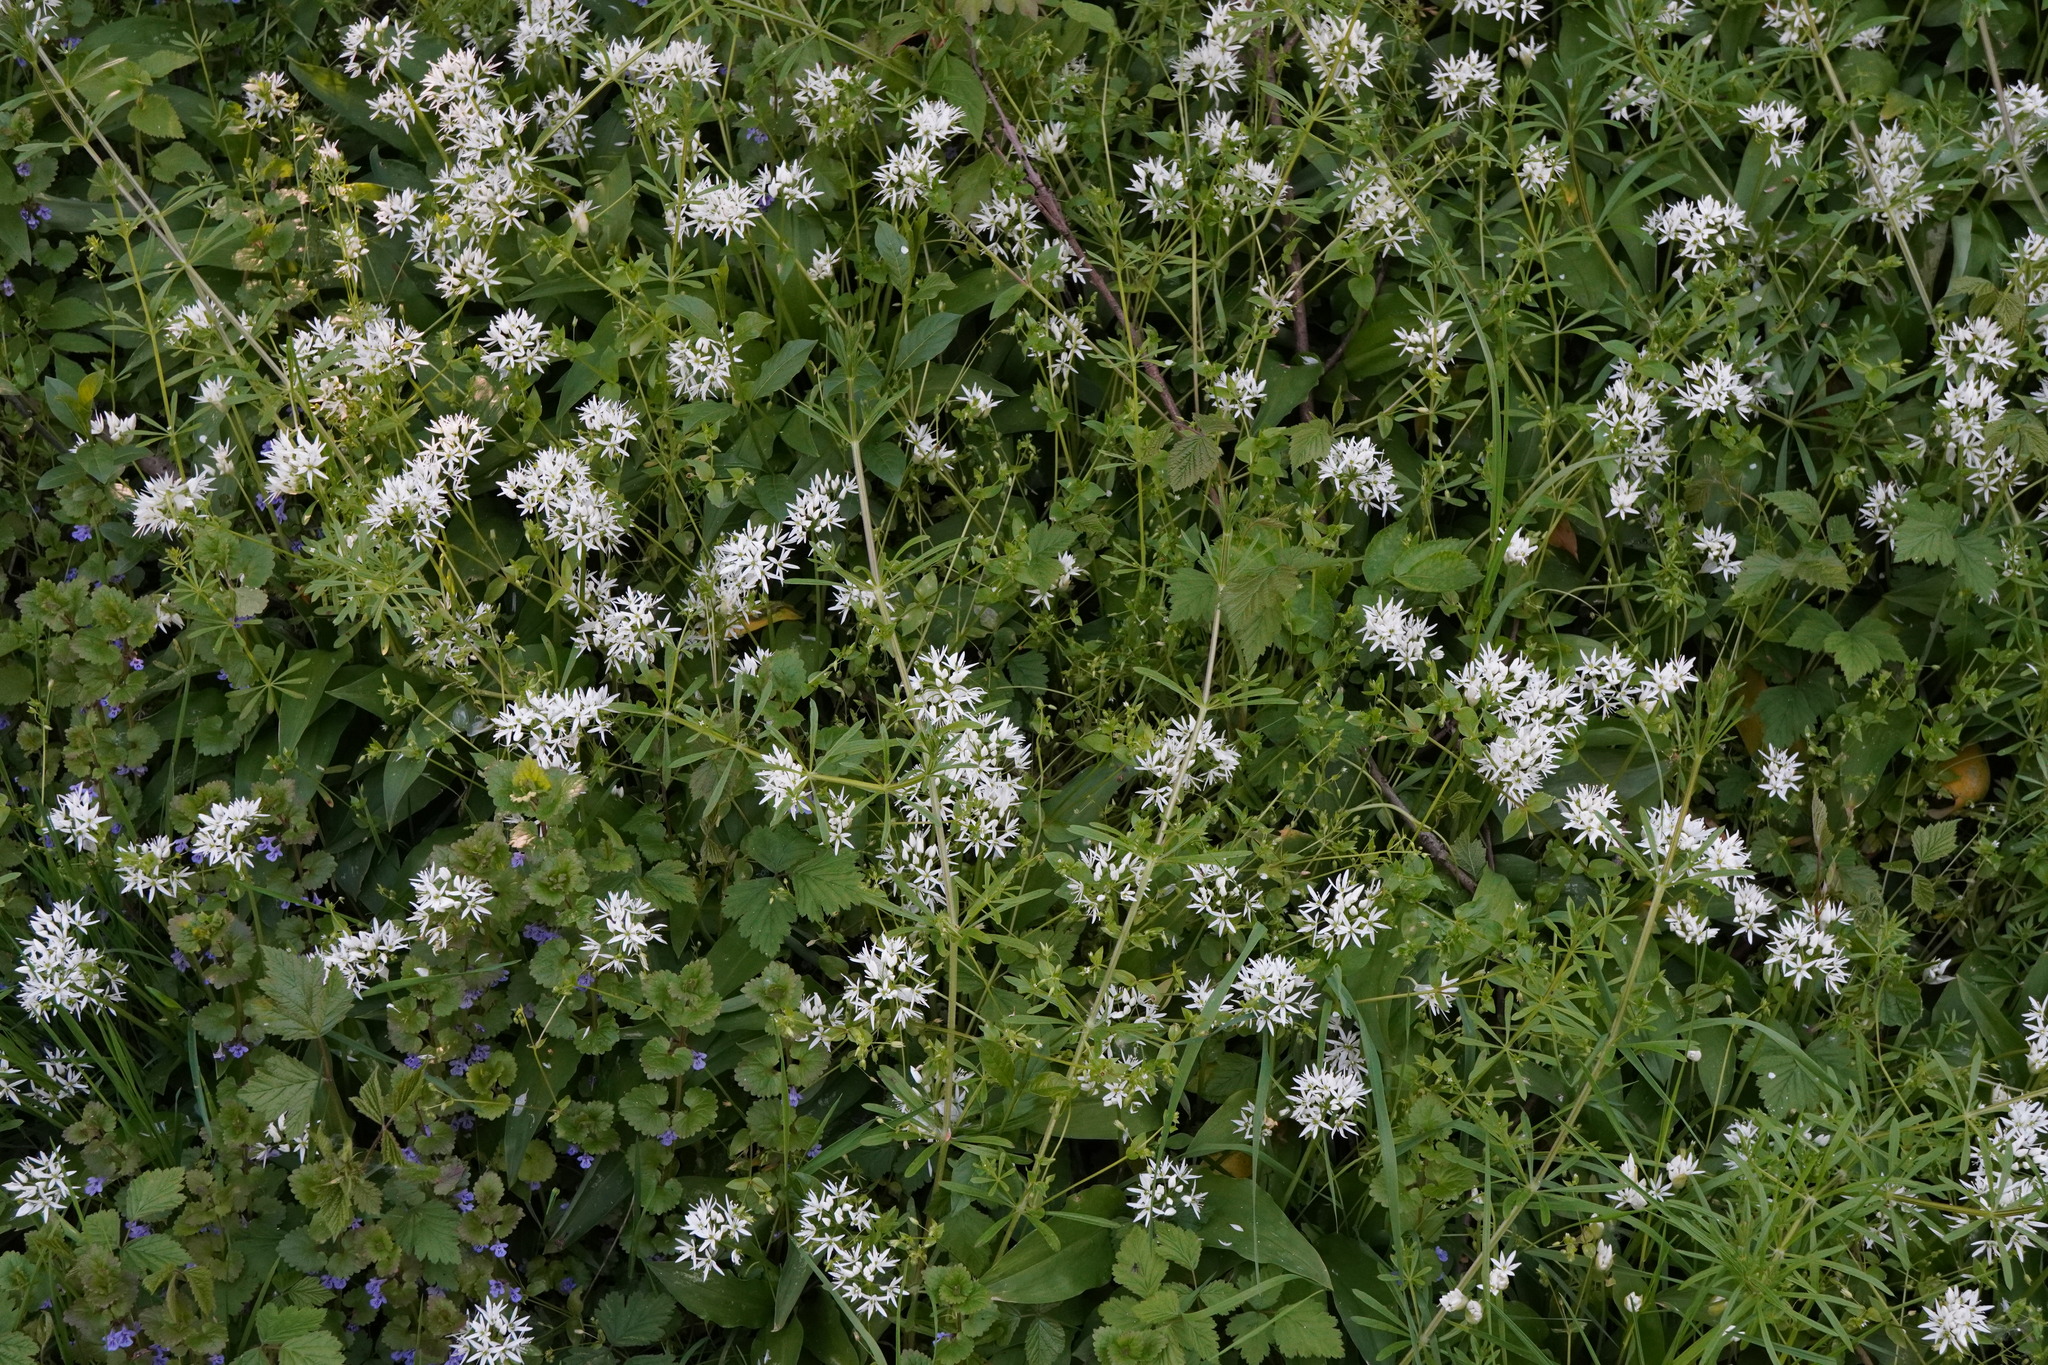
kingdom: Plantae
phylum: Tracheophyta
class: Liliopsida
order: Asparagales
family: Amaryllidaceae
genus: Allium
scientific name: Allium ursinum
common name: Ramsons
